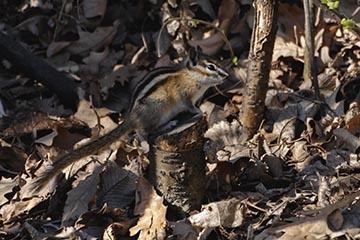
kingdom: Animalia
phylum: Chordata
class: Mammalia
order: Rodentia
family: Sciuridae
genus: Tamias
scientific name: Tamias minimus
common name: Least chipmunk
